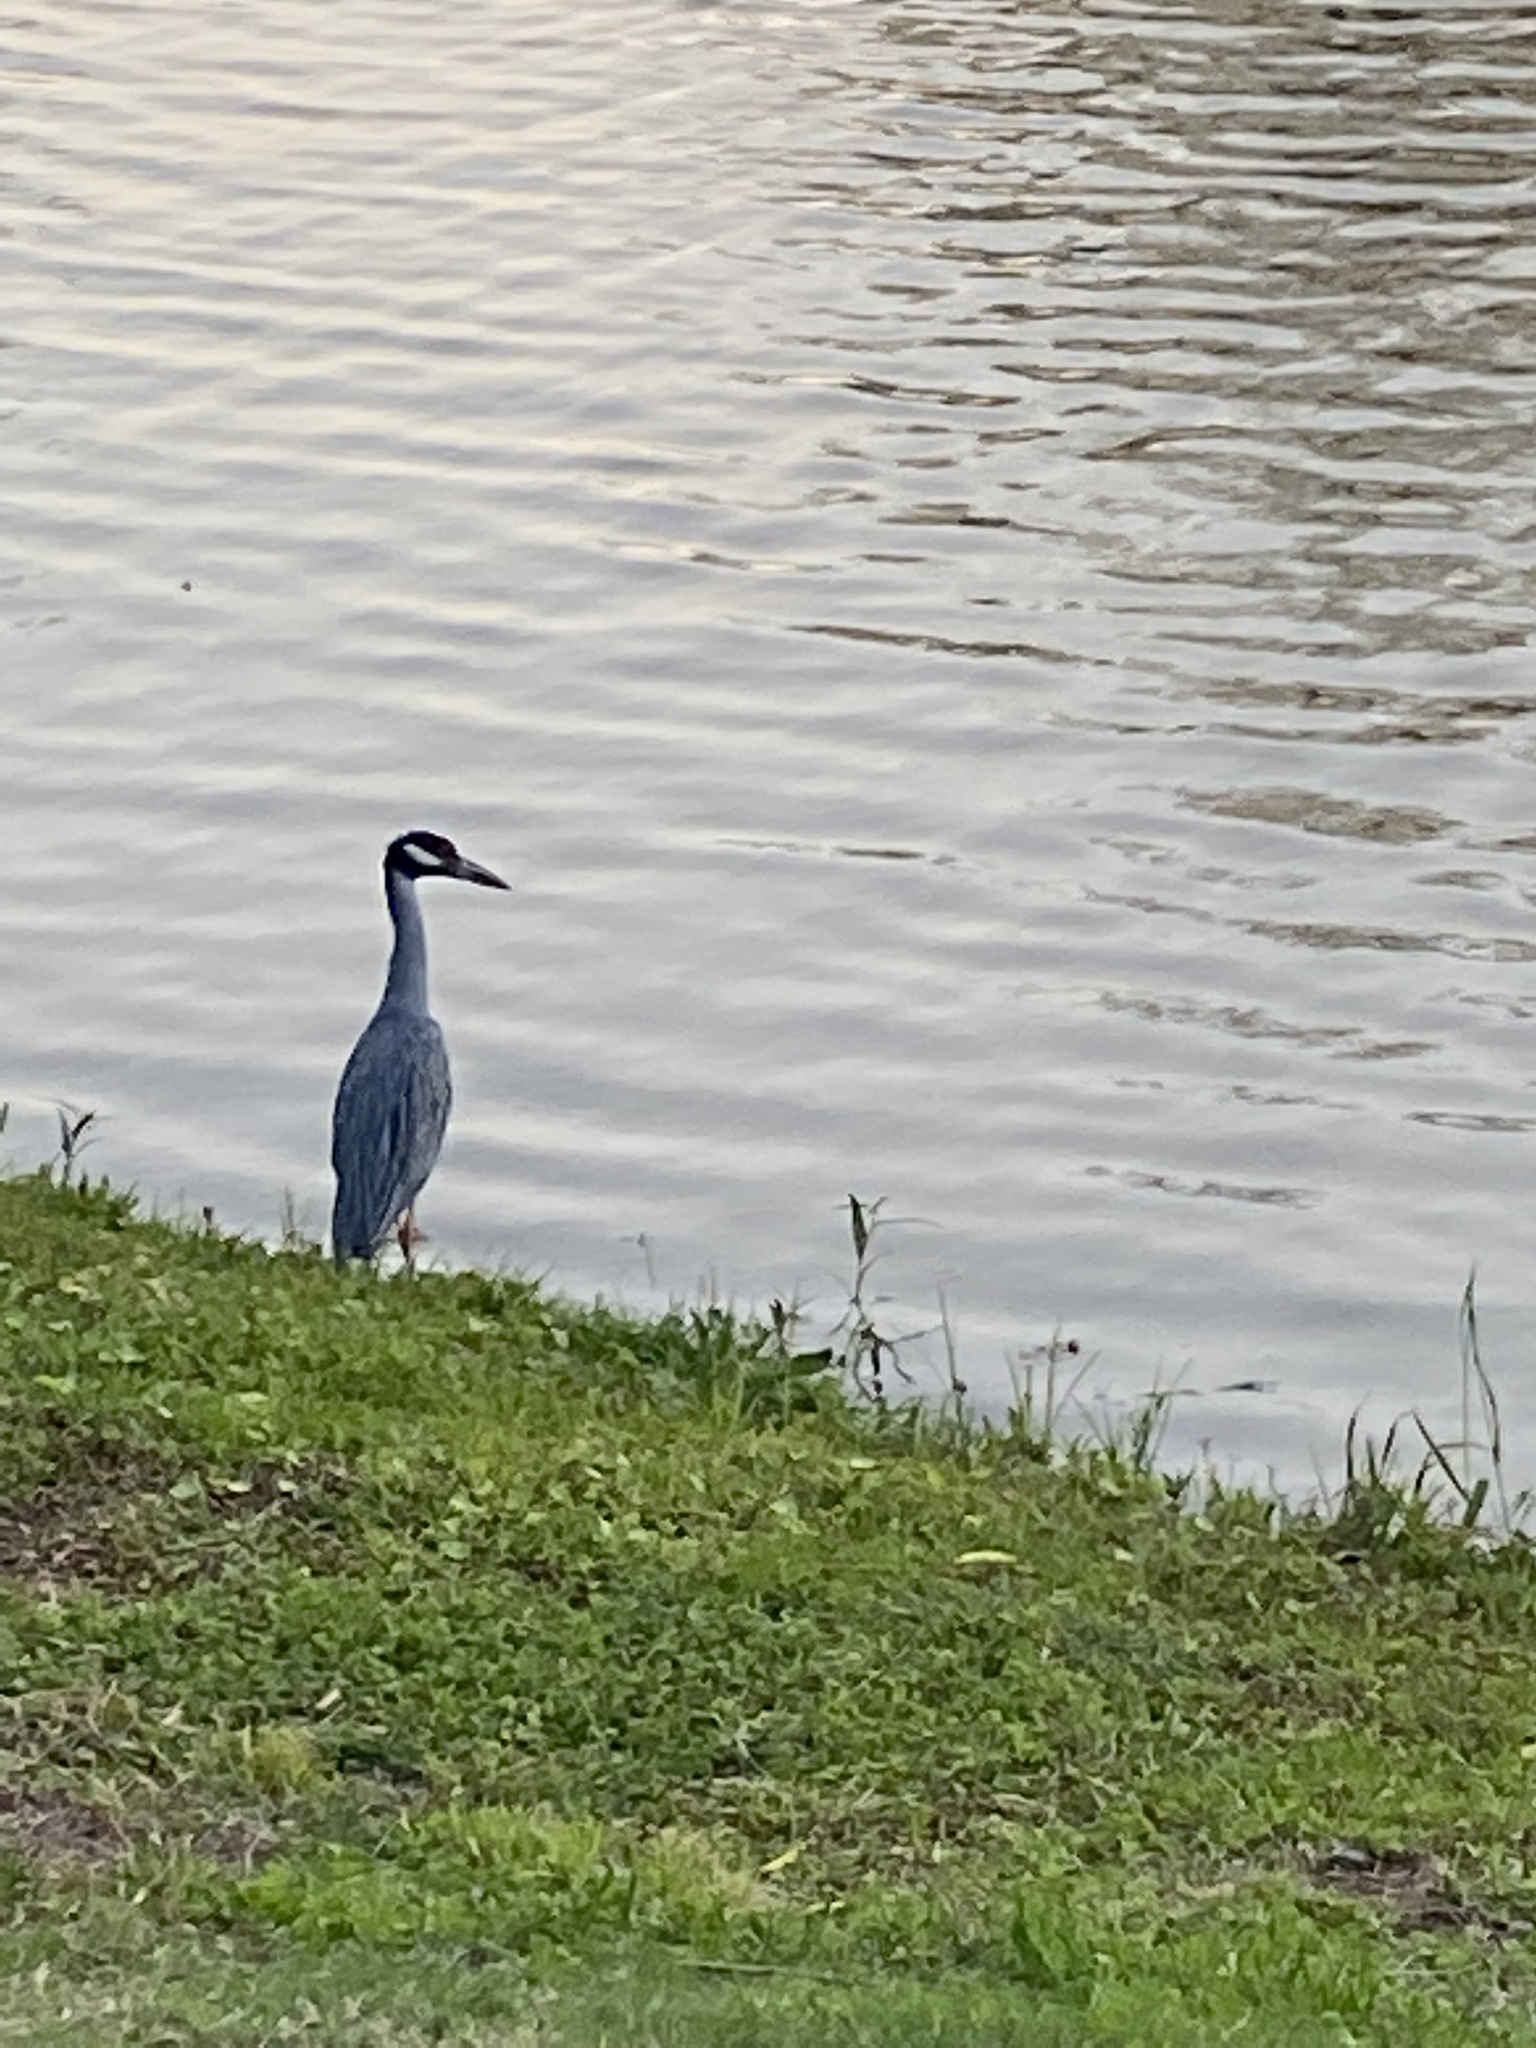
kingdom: Animalia
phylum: Chordata
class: Aves
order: Pelecaniformes
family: Ardeidae
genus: Nyctanassa
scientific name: Nyctanassa violacea
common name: Yellow-crowned night heron
